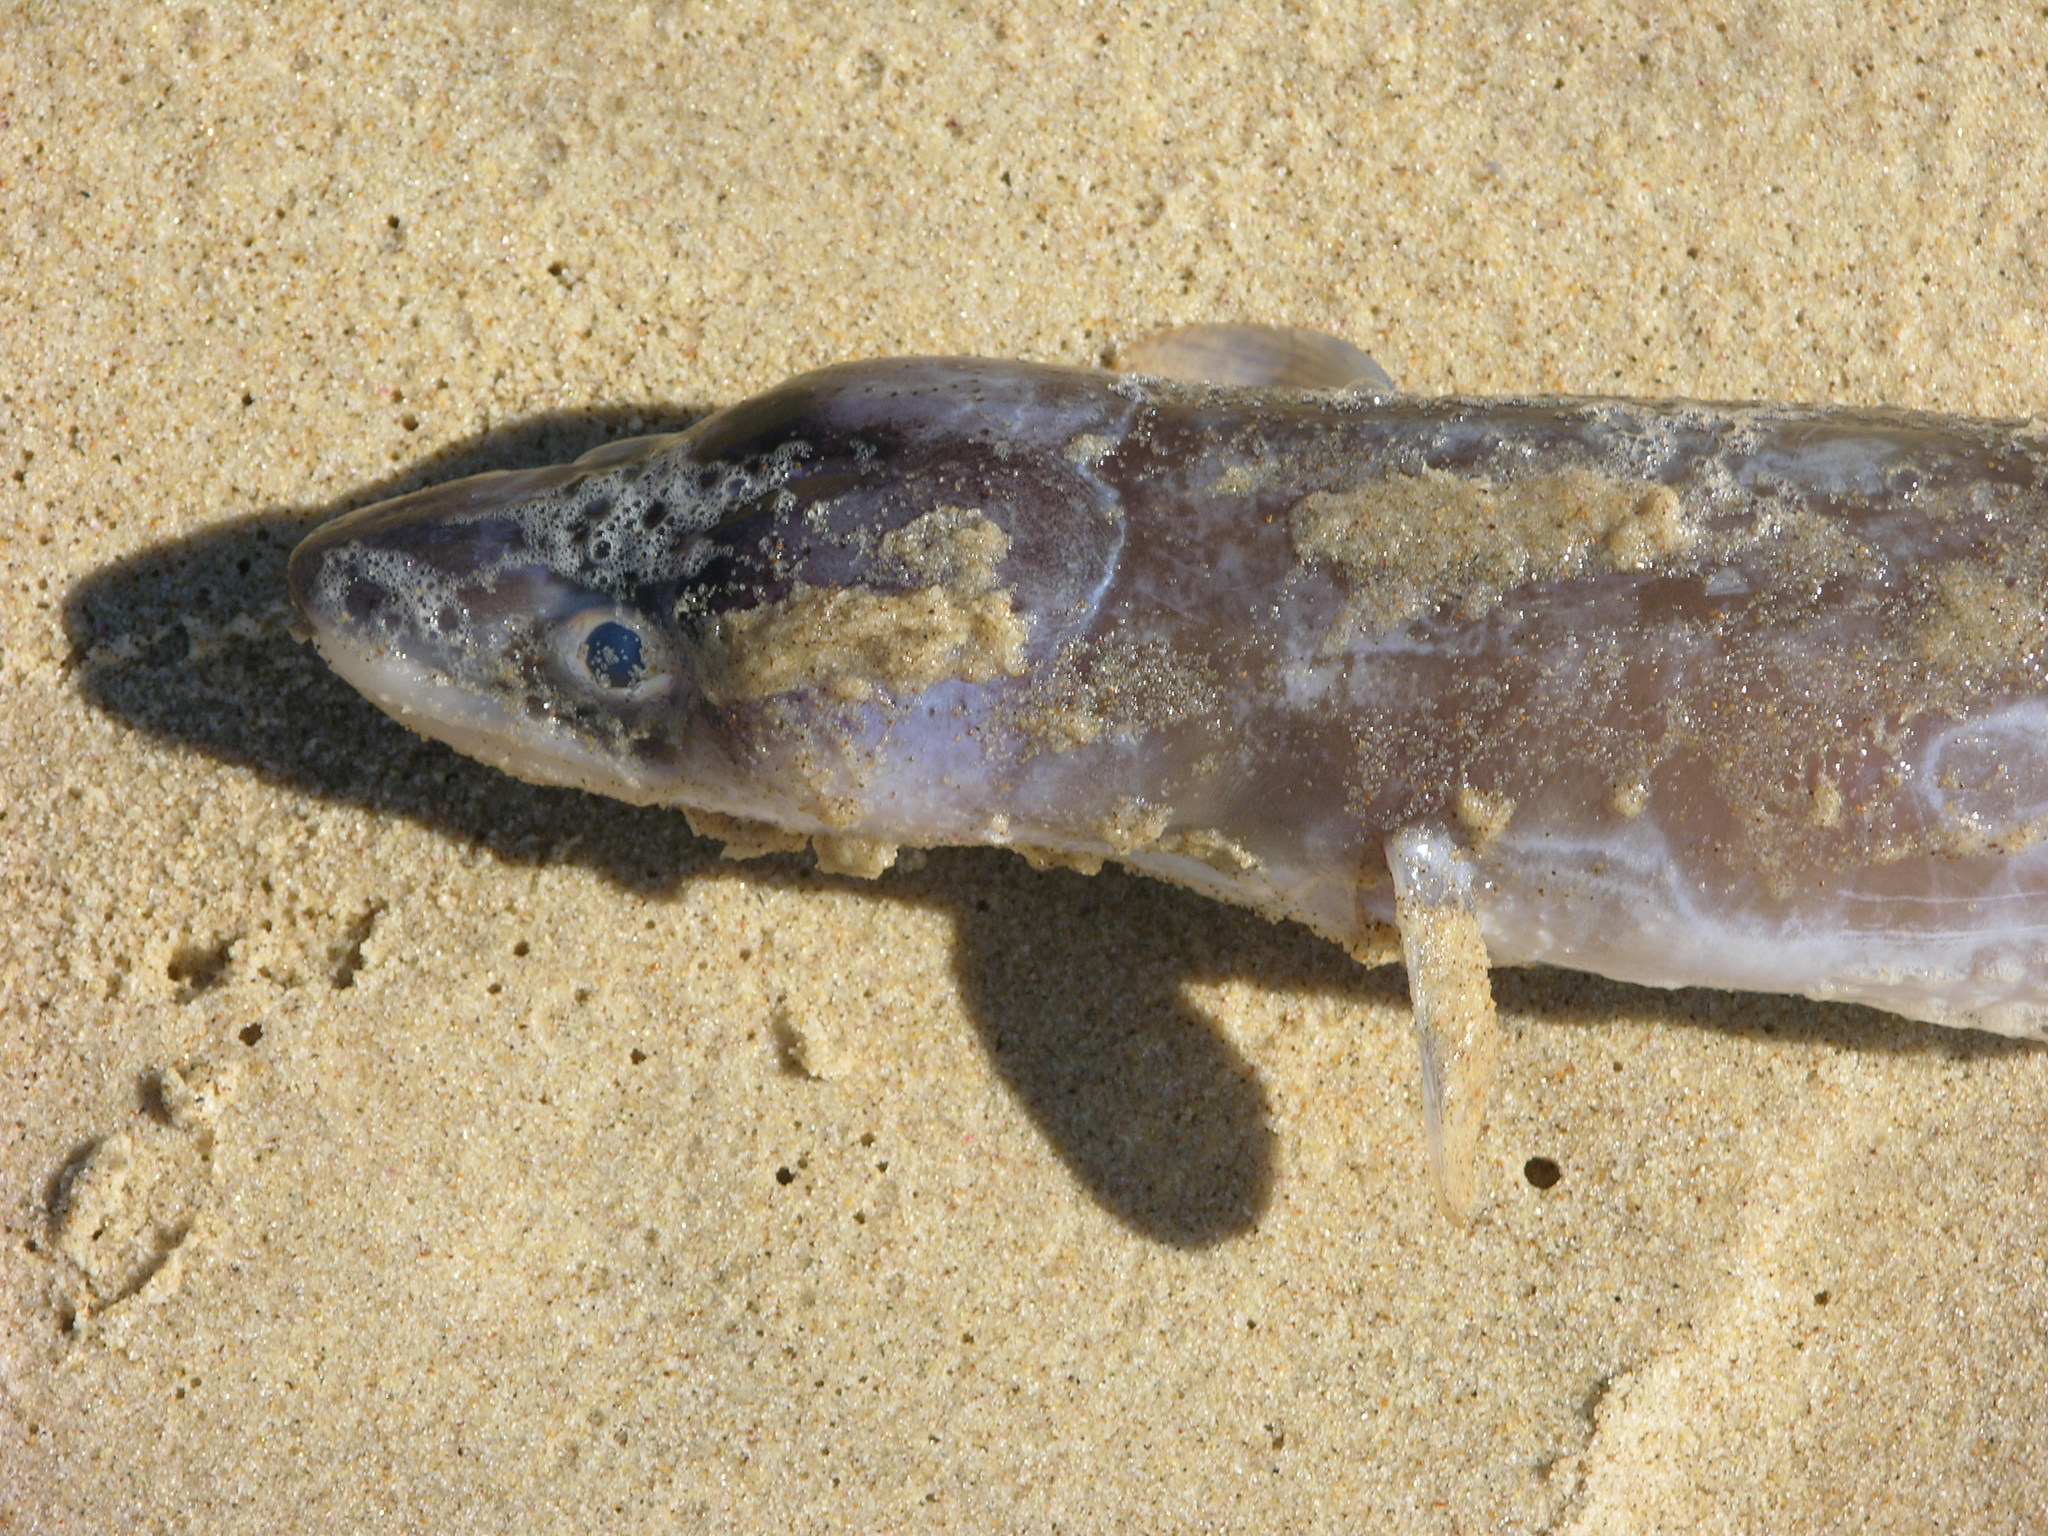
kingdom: Animalia
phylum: Chordata
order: Anguilliformes
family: Congridae
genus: Conger
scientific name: Conger wilsoni
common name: Cape conger
